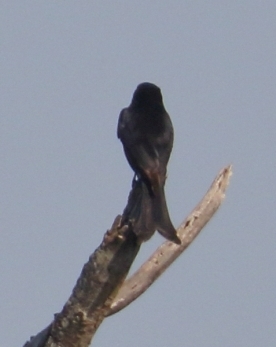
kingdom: Animalia
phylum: Chordata
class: Aves
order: Passeriformes
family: Dicruridae
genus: Dicrurus
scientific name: Dicrurus adsimilis
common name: Fork-tailed drongo
